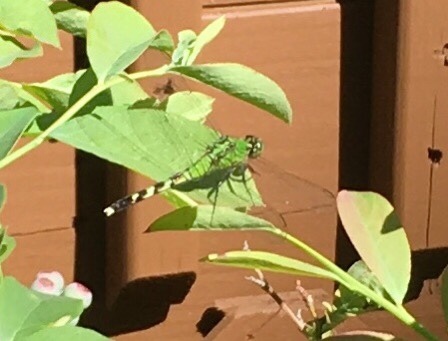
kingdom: Animalia
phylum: Arthropoda
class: Insecta
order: Odonata
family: Libellulidae
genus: Erythemis
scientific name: Erythemis simplicicollis
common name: Eastern pondhawk
